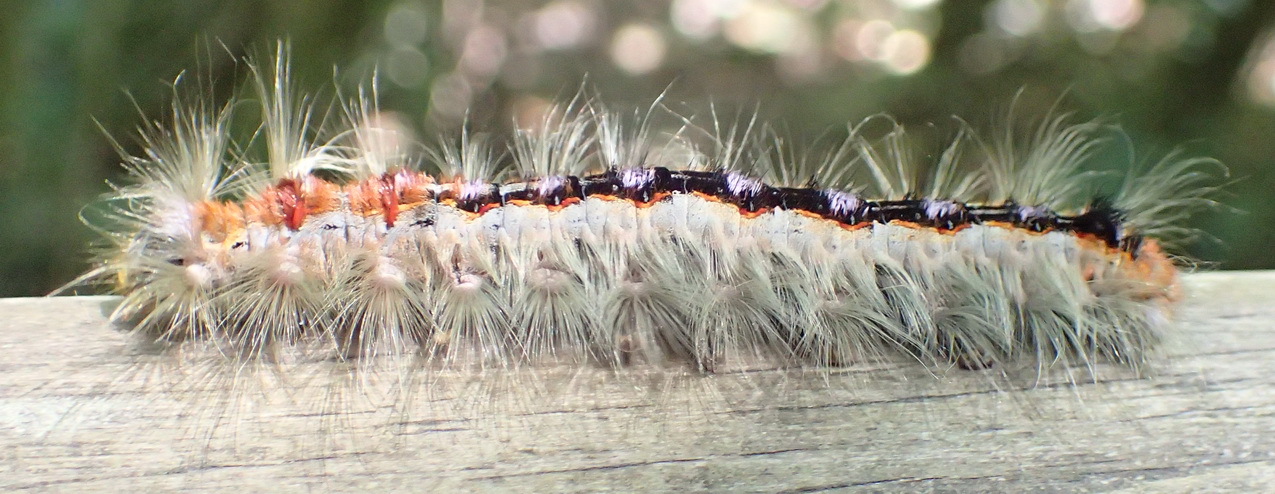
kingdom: Animalia
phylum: Arthropoda
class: Insecta
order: Lepidoptera
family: Lasiocampidae
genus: Eutricha
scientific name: Eutricha capensis
